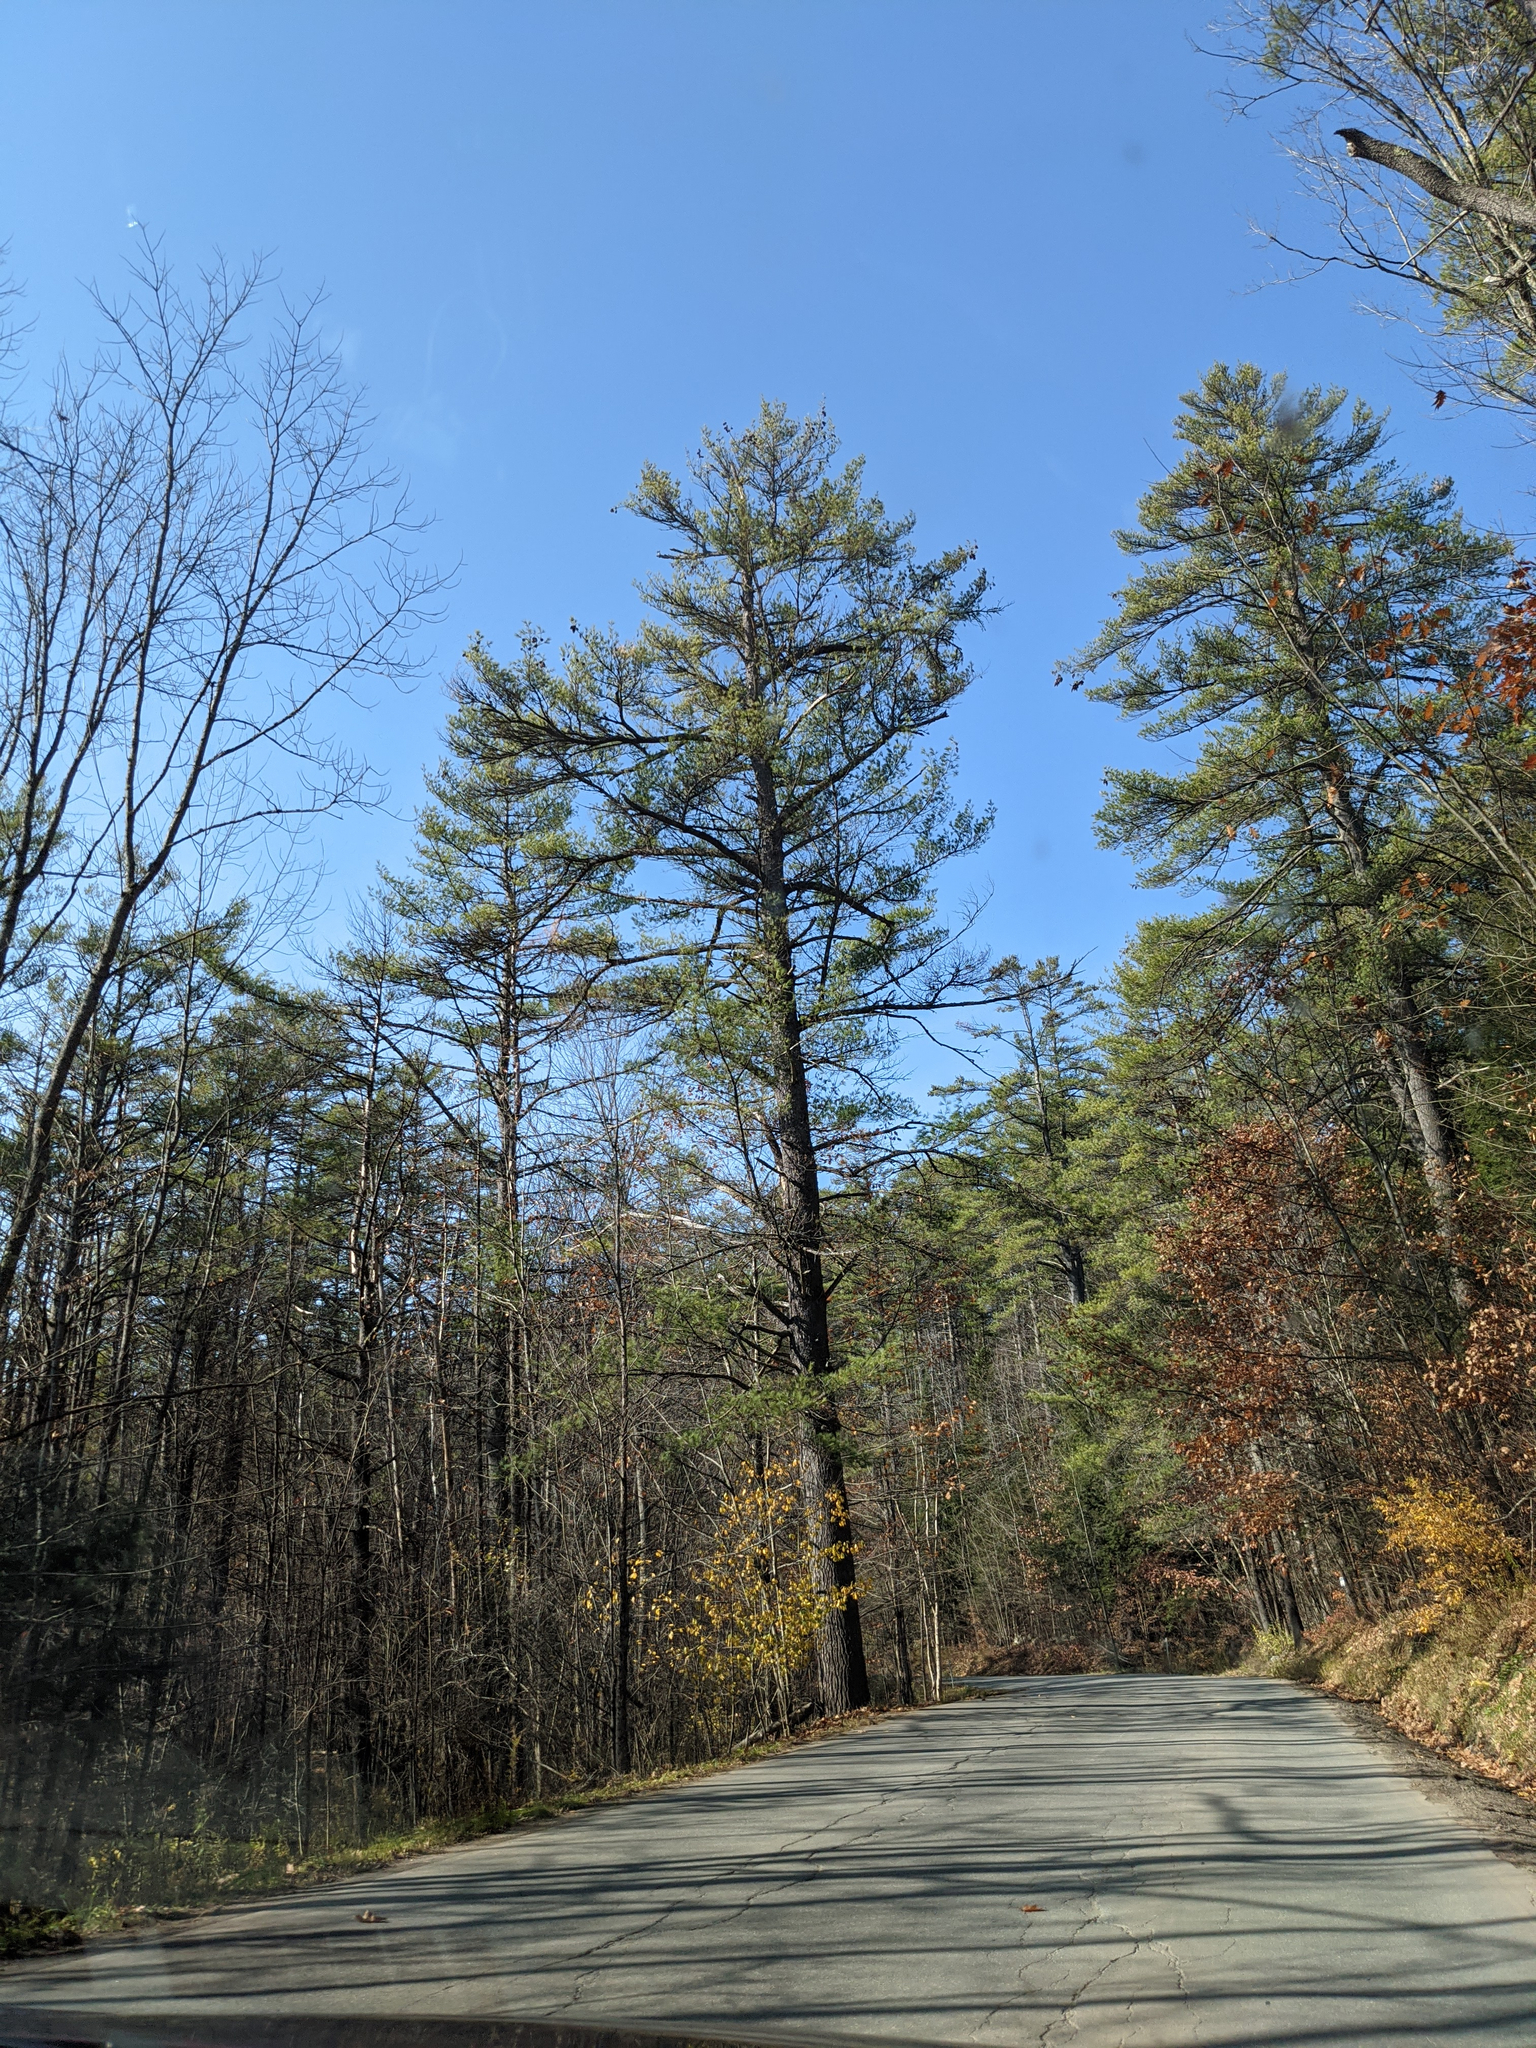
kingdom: Plantae
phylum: Tracheophyta
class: Pinopsida
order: Pinales
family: Pinaceae
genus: Pinus
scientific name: Pinus strobus
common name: Weymouth pine
